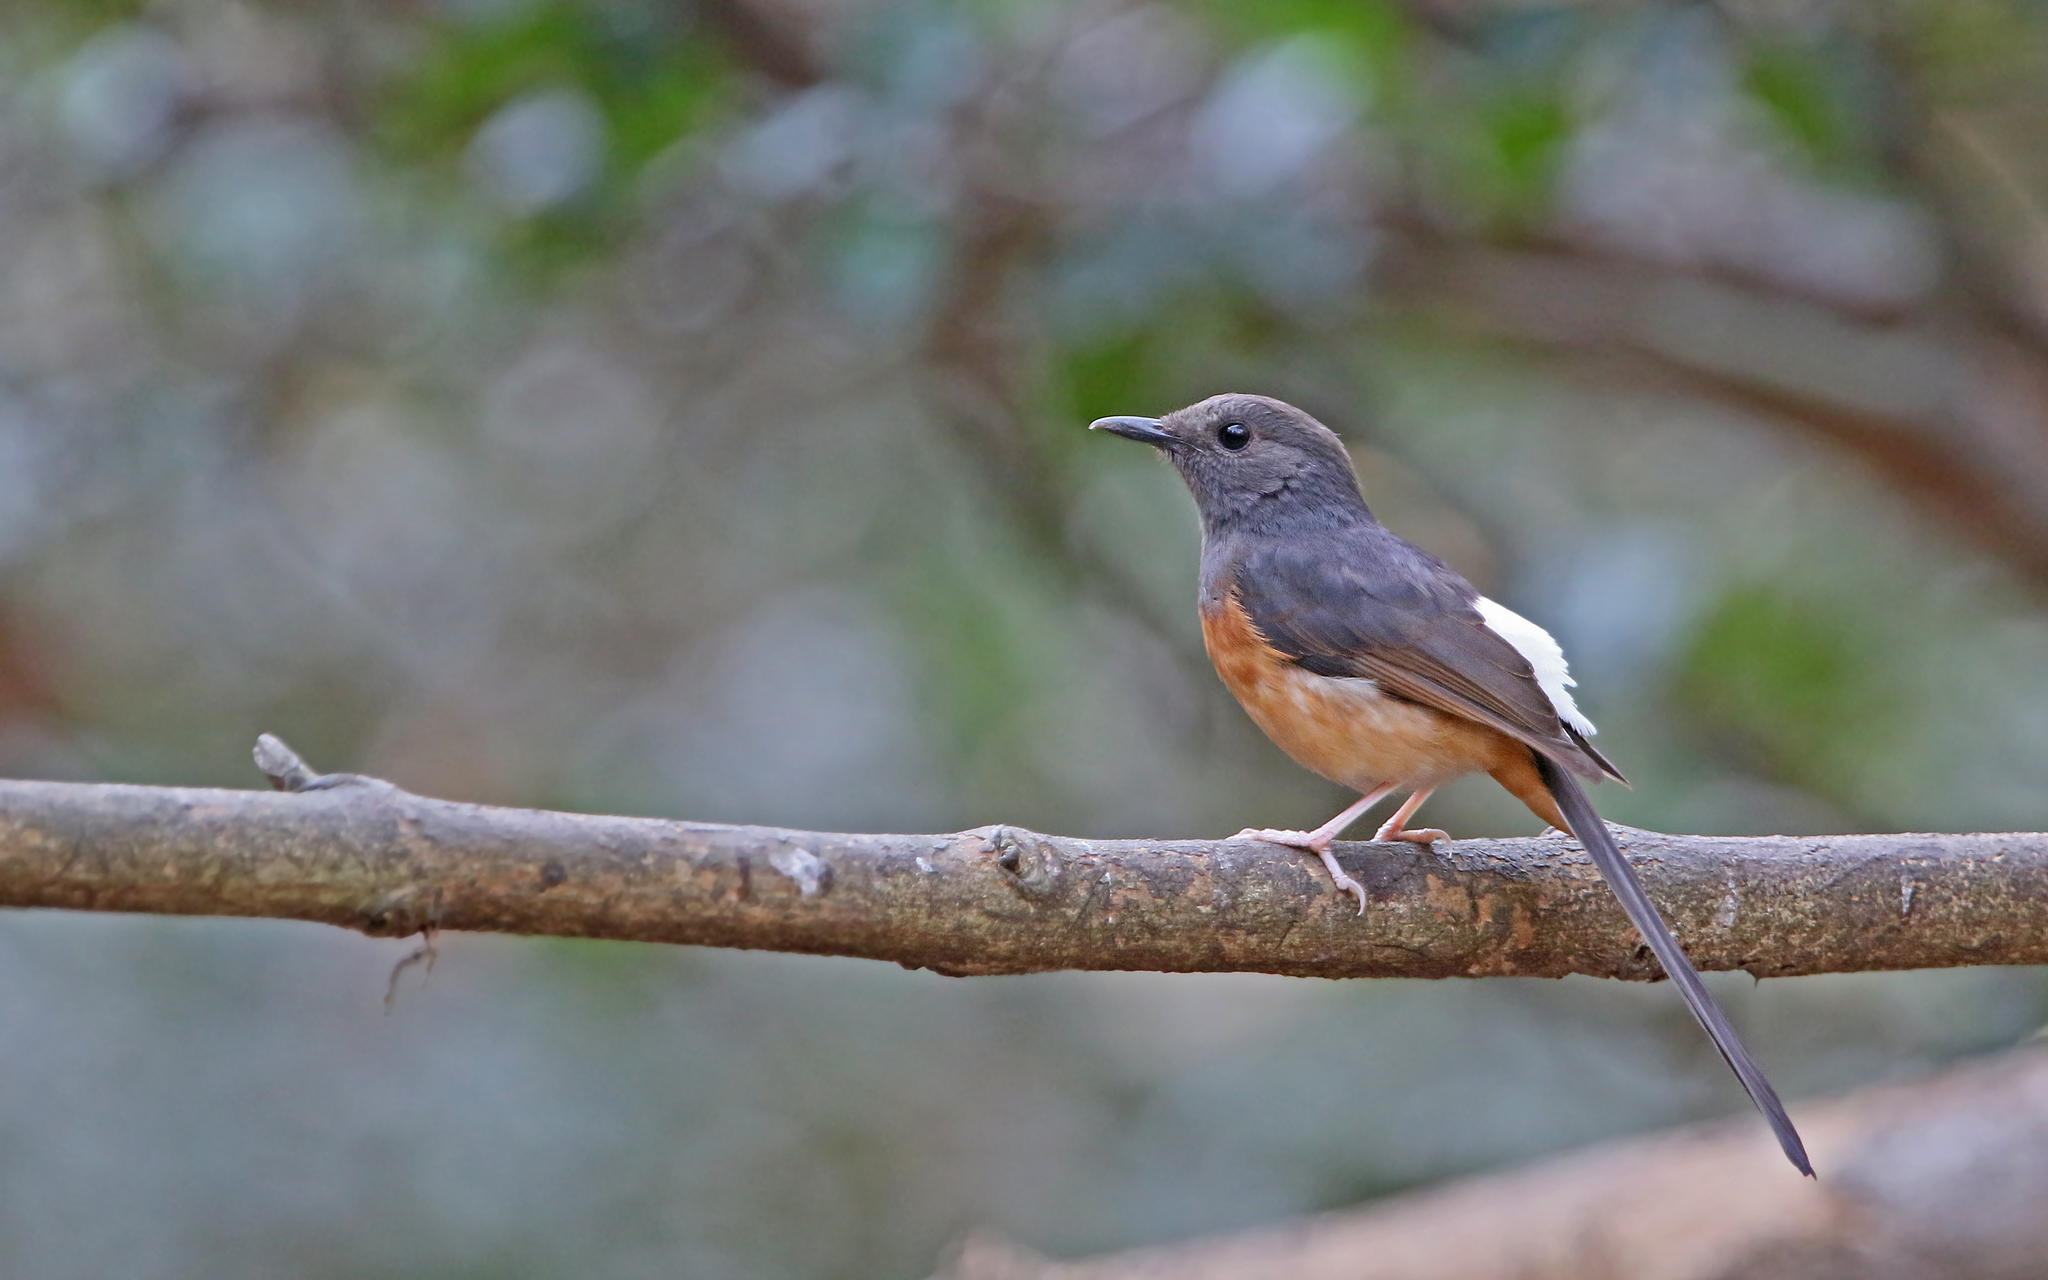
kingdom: Animalia
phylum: Chordata
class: Aves
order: Passeriformes
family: Muscicapidae
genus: Copsychus
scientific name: Copsychus malabaricus
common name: White-rumped shama
